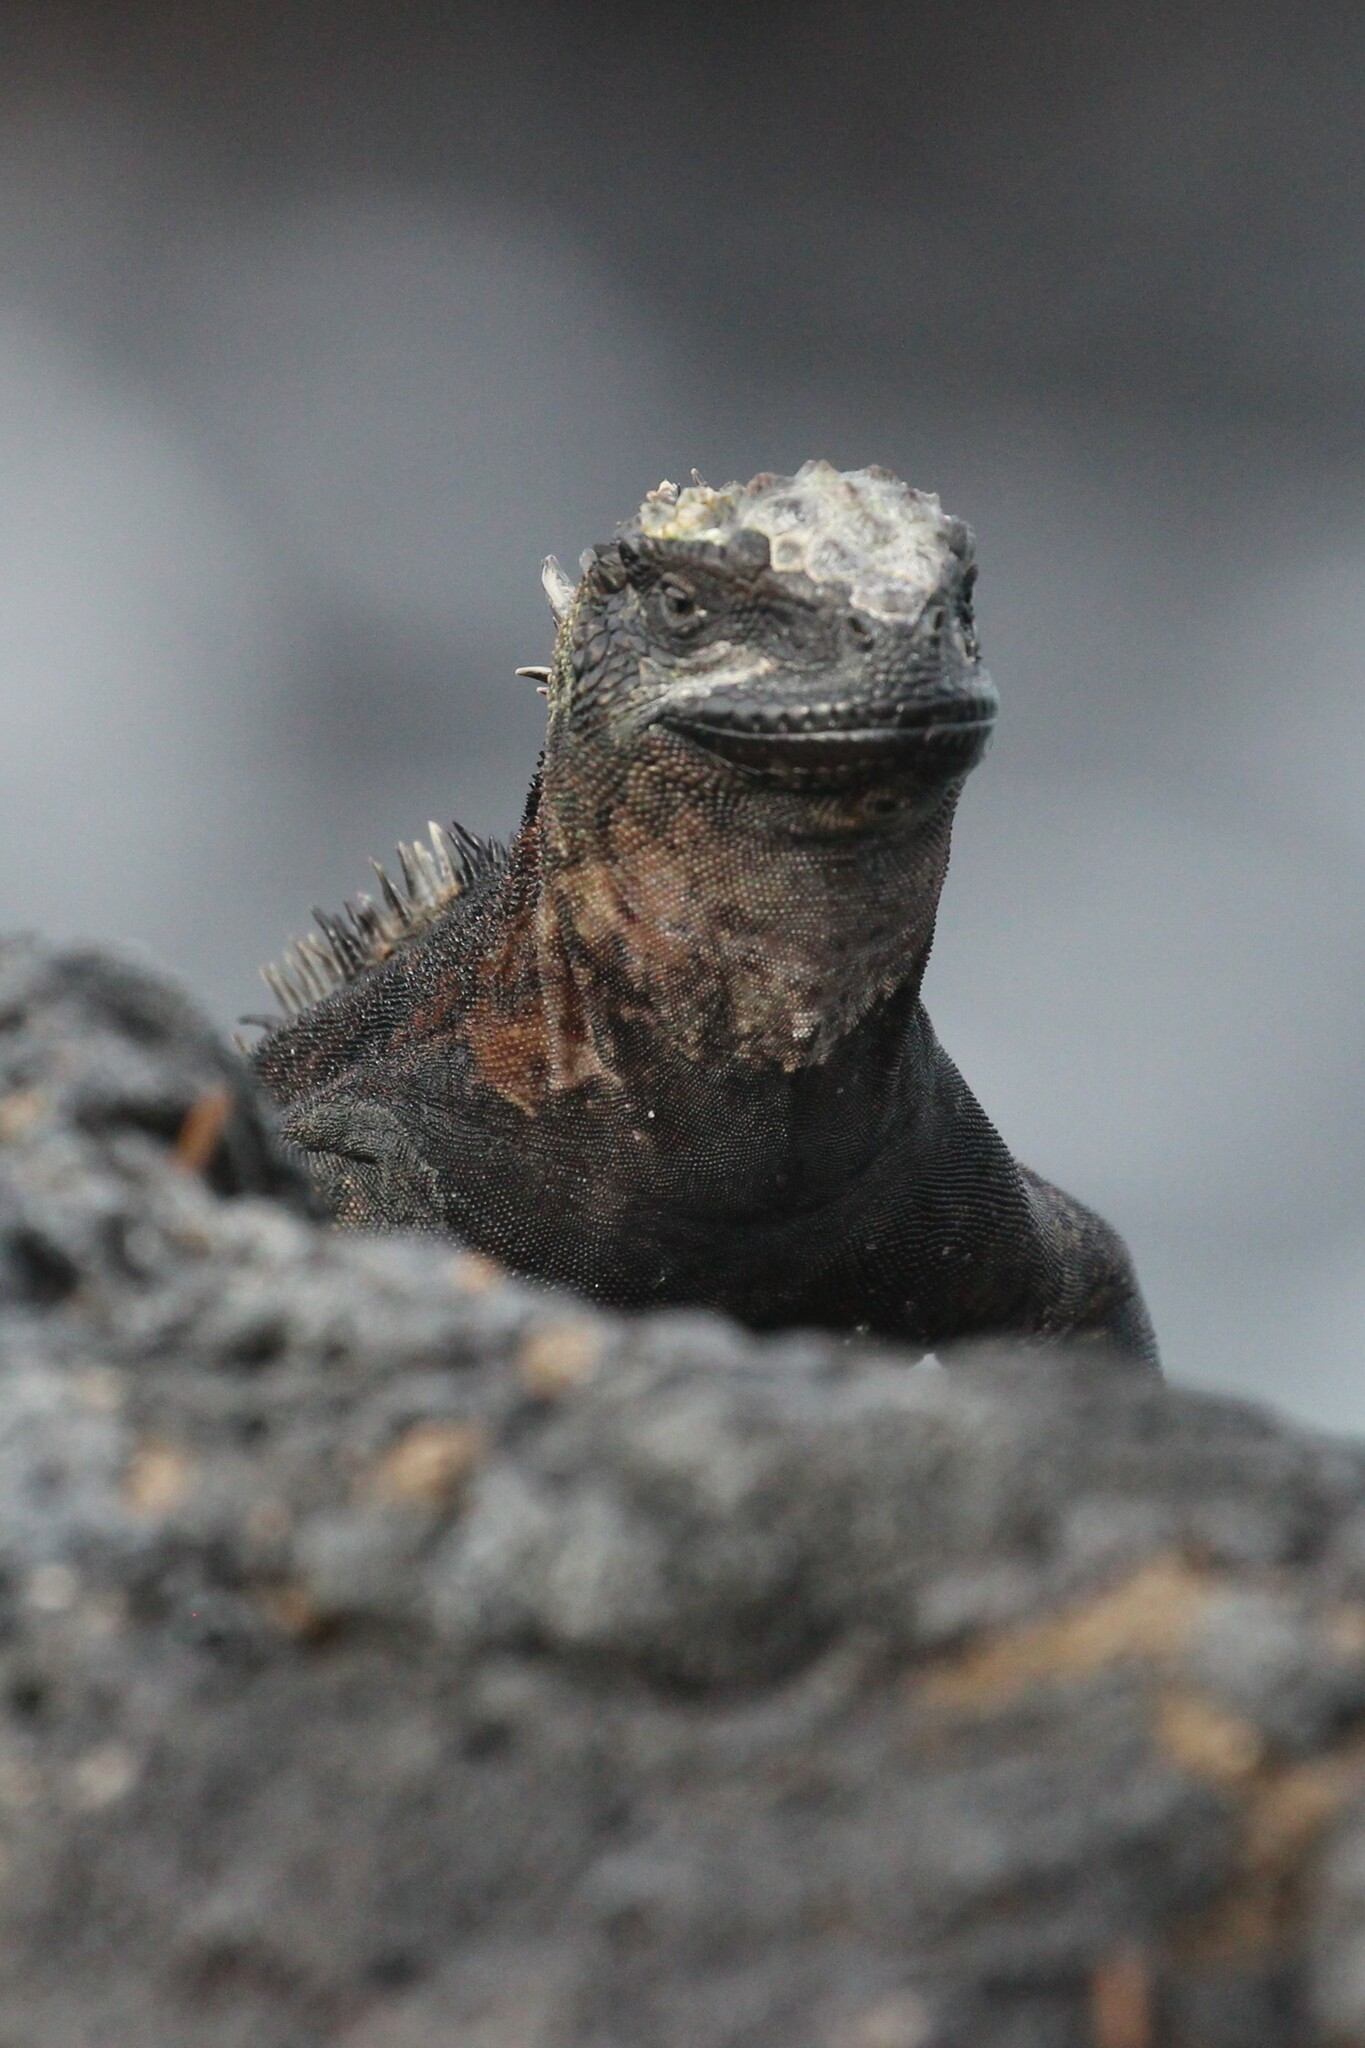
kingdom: Animalia
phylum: Chordata
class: Squamata
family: Iguanidae
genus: Amblyrhynchus
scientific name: Amblyrhynchus cristatus
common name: Marine iguana
